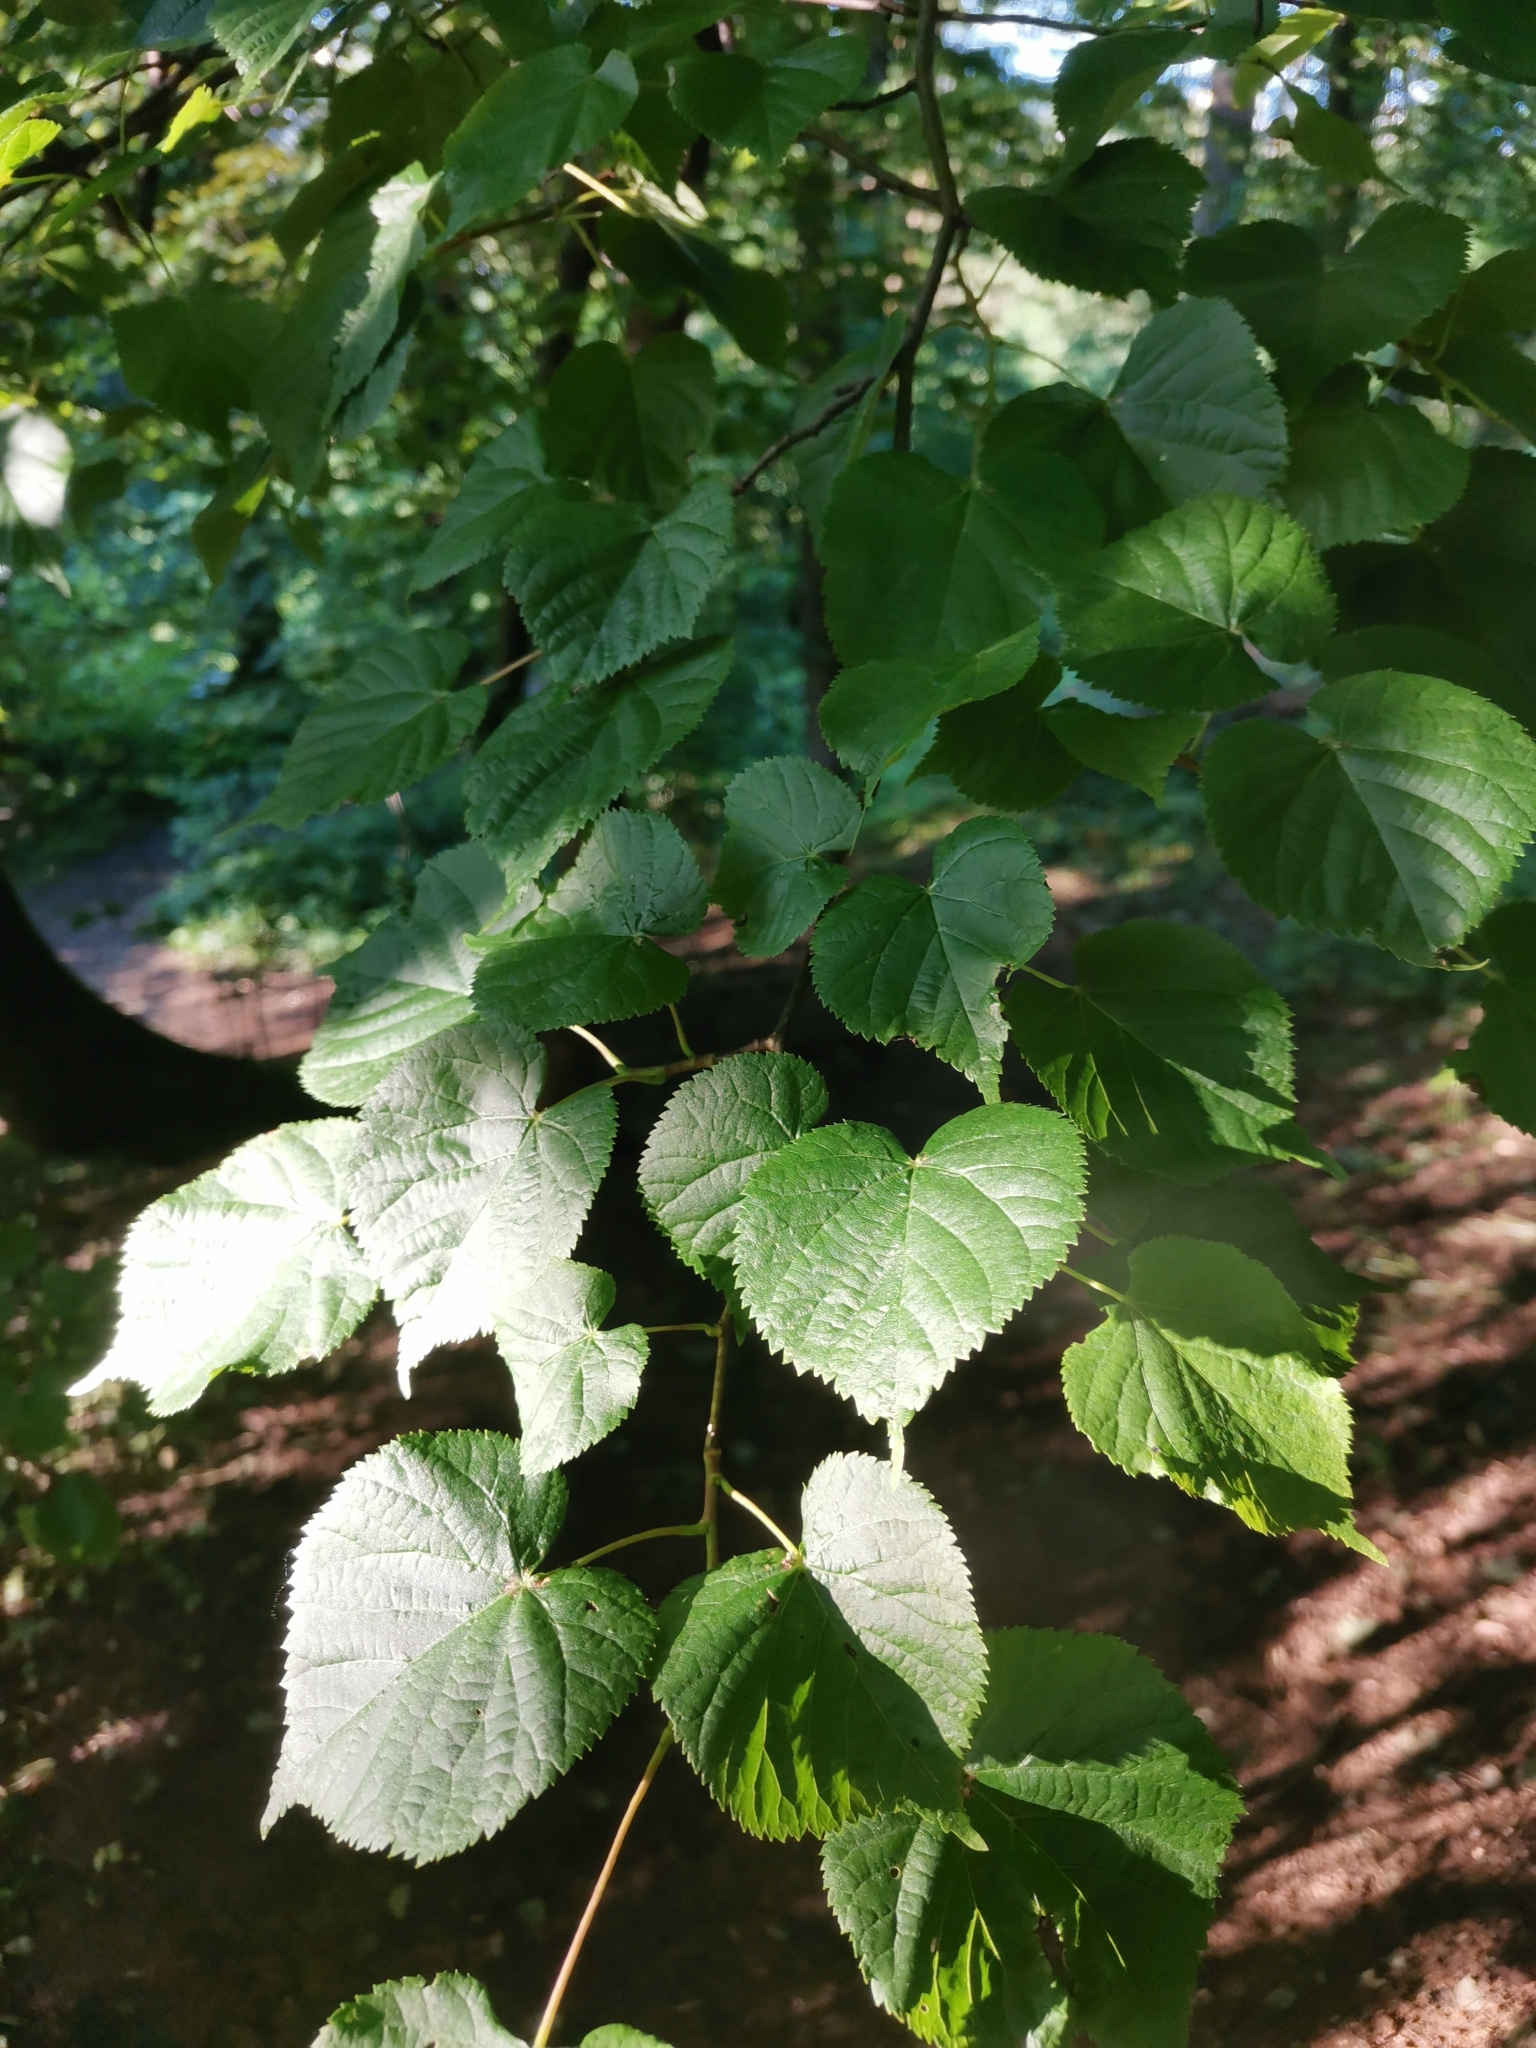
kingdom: Plantae
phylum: Tracheophyta
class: Magnoliopsida
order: Malvales
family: Malvaceae
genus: Tilia
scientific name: Tilia cordata
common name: Small-leaved lime
